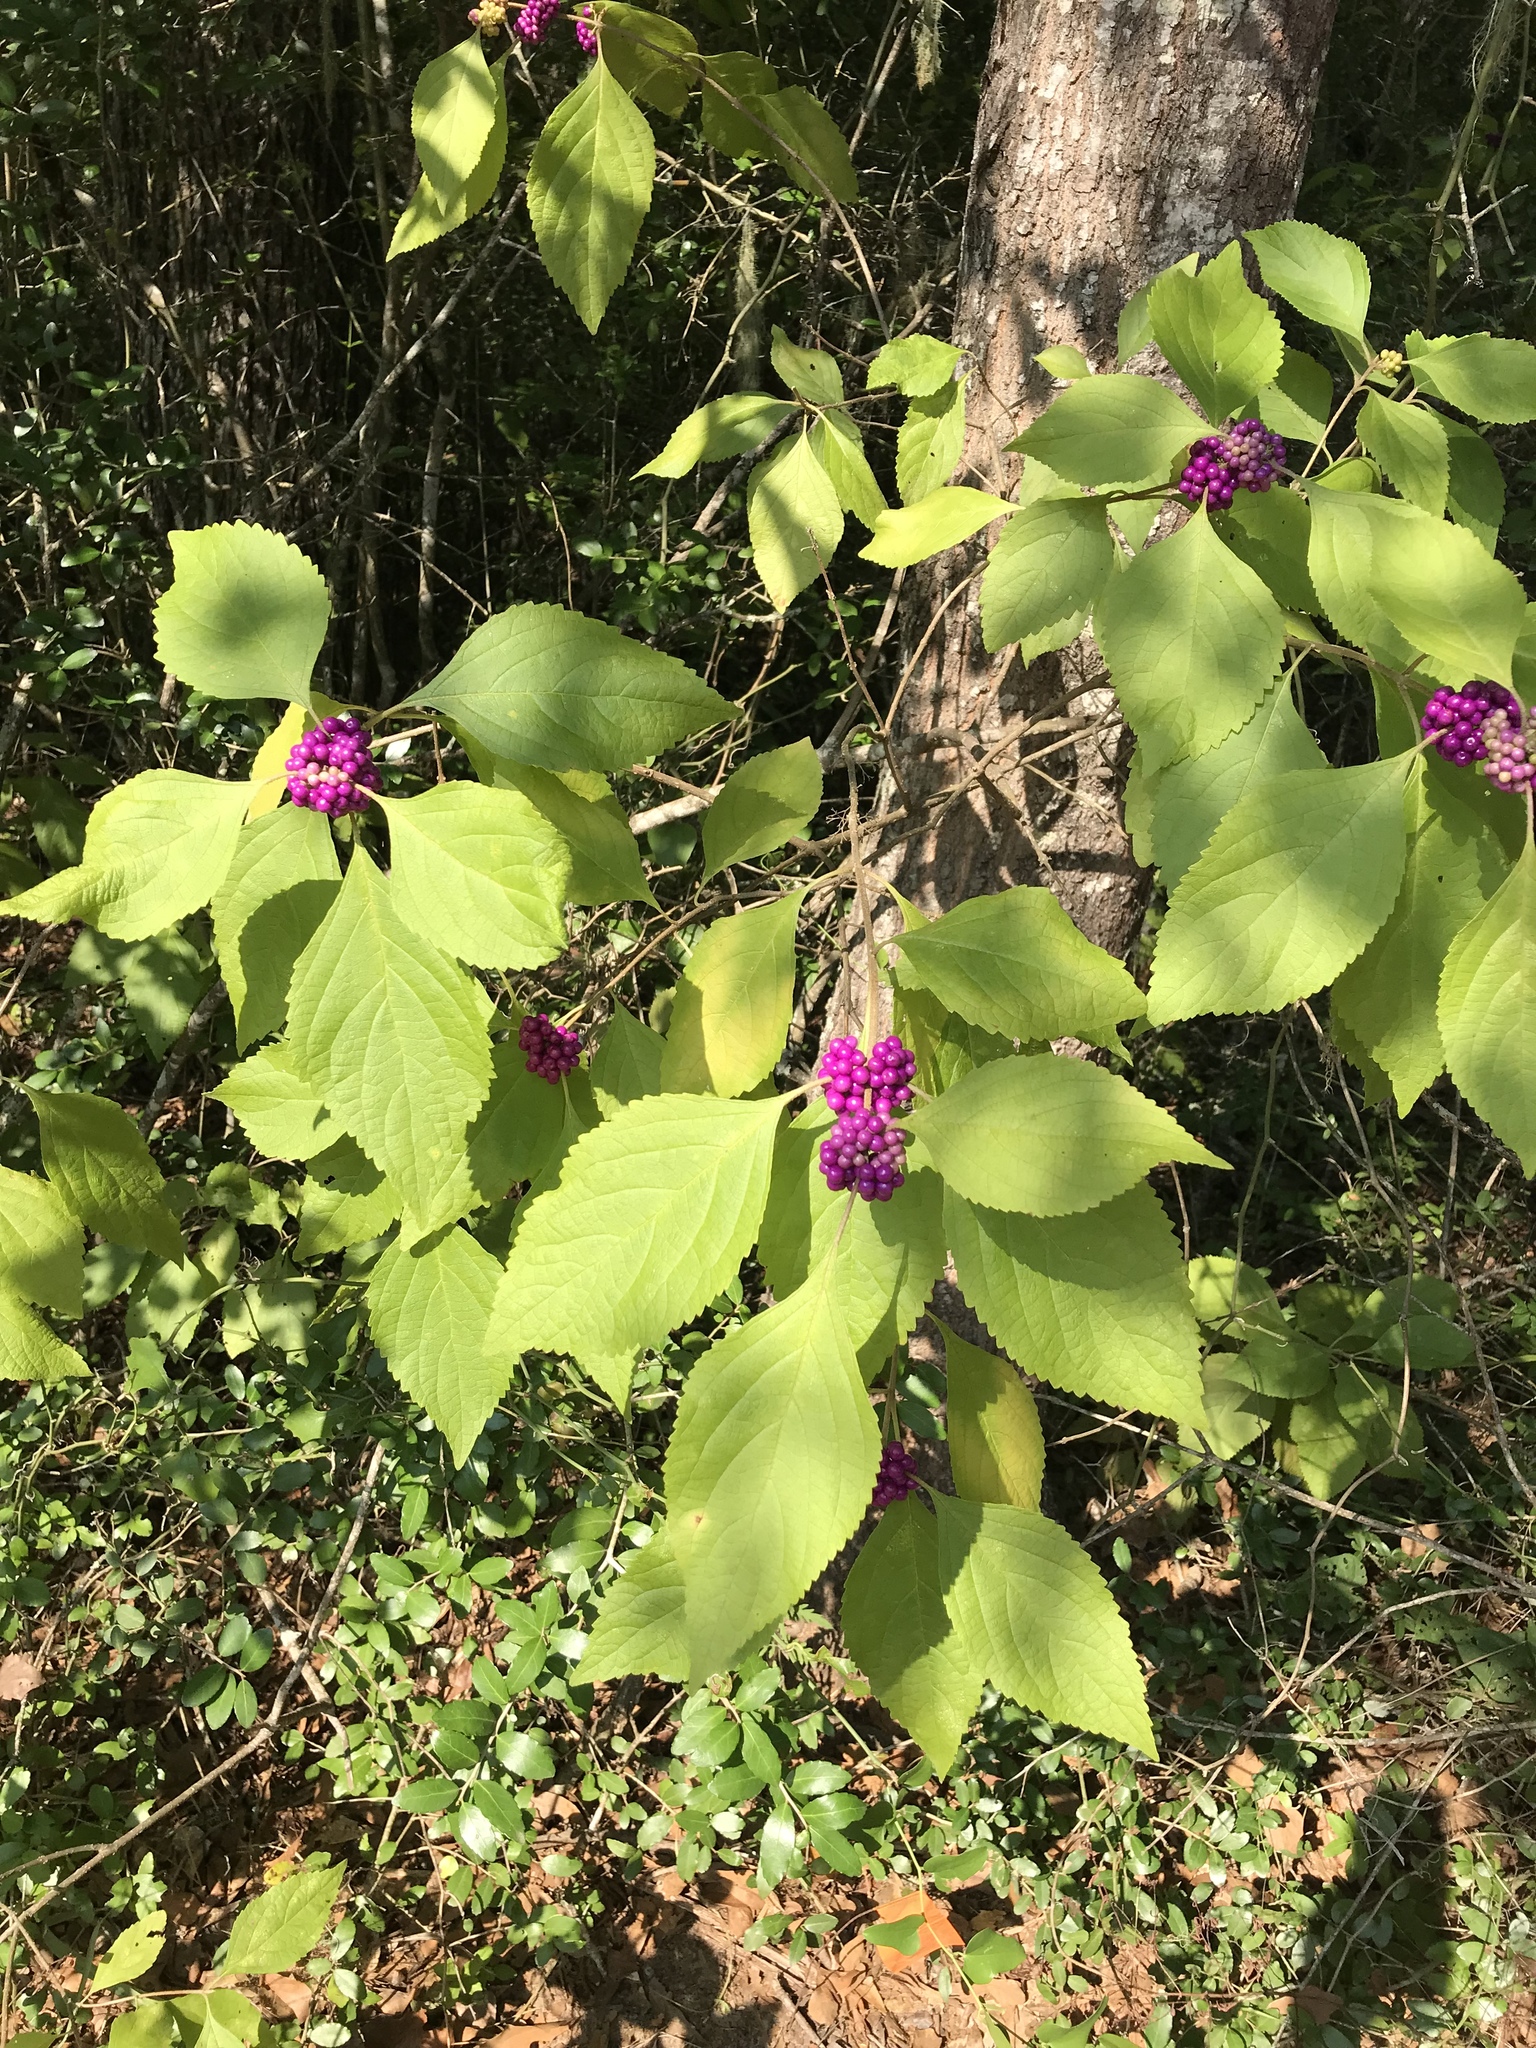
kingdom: Plantae
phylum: Tracheophyta
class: Magnoliopsida
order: Lamiales
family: Lamiaceae
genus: Callicarpa
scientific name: Callicarpa americana
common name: American beautyberry
